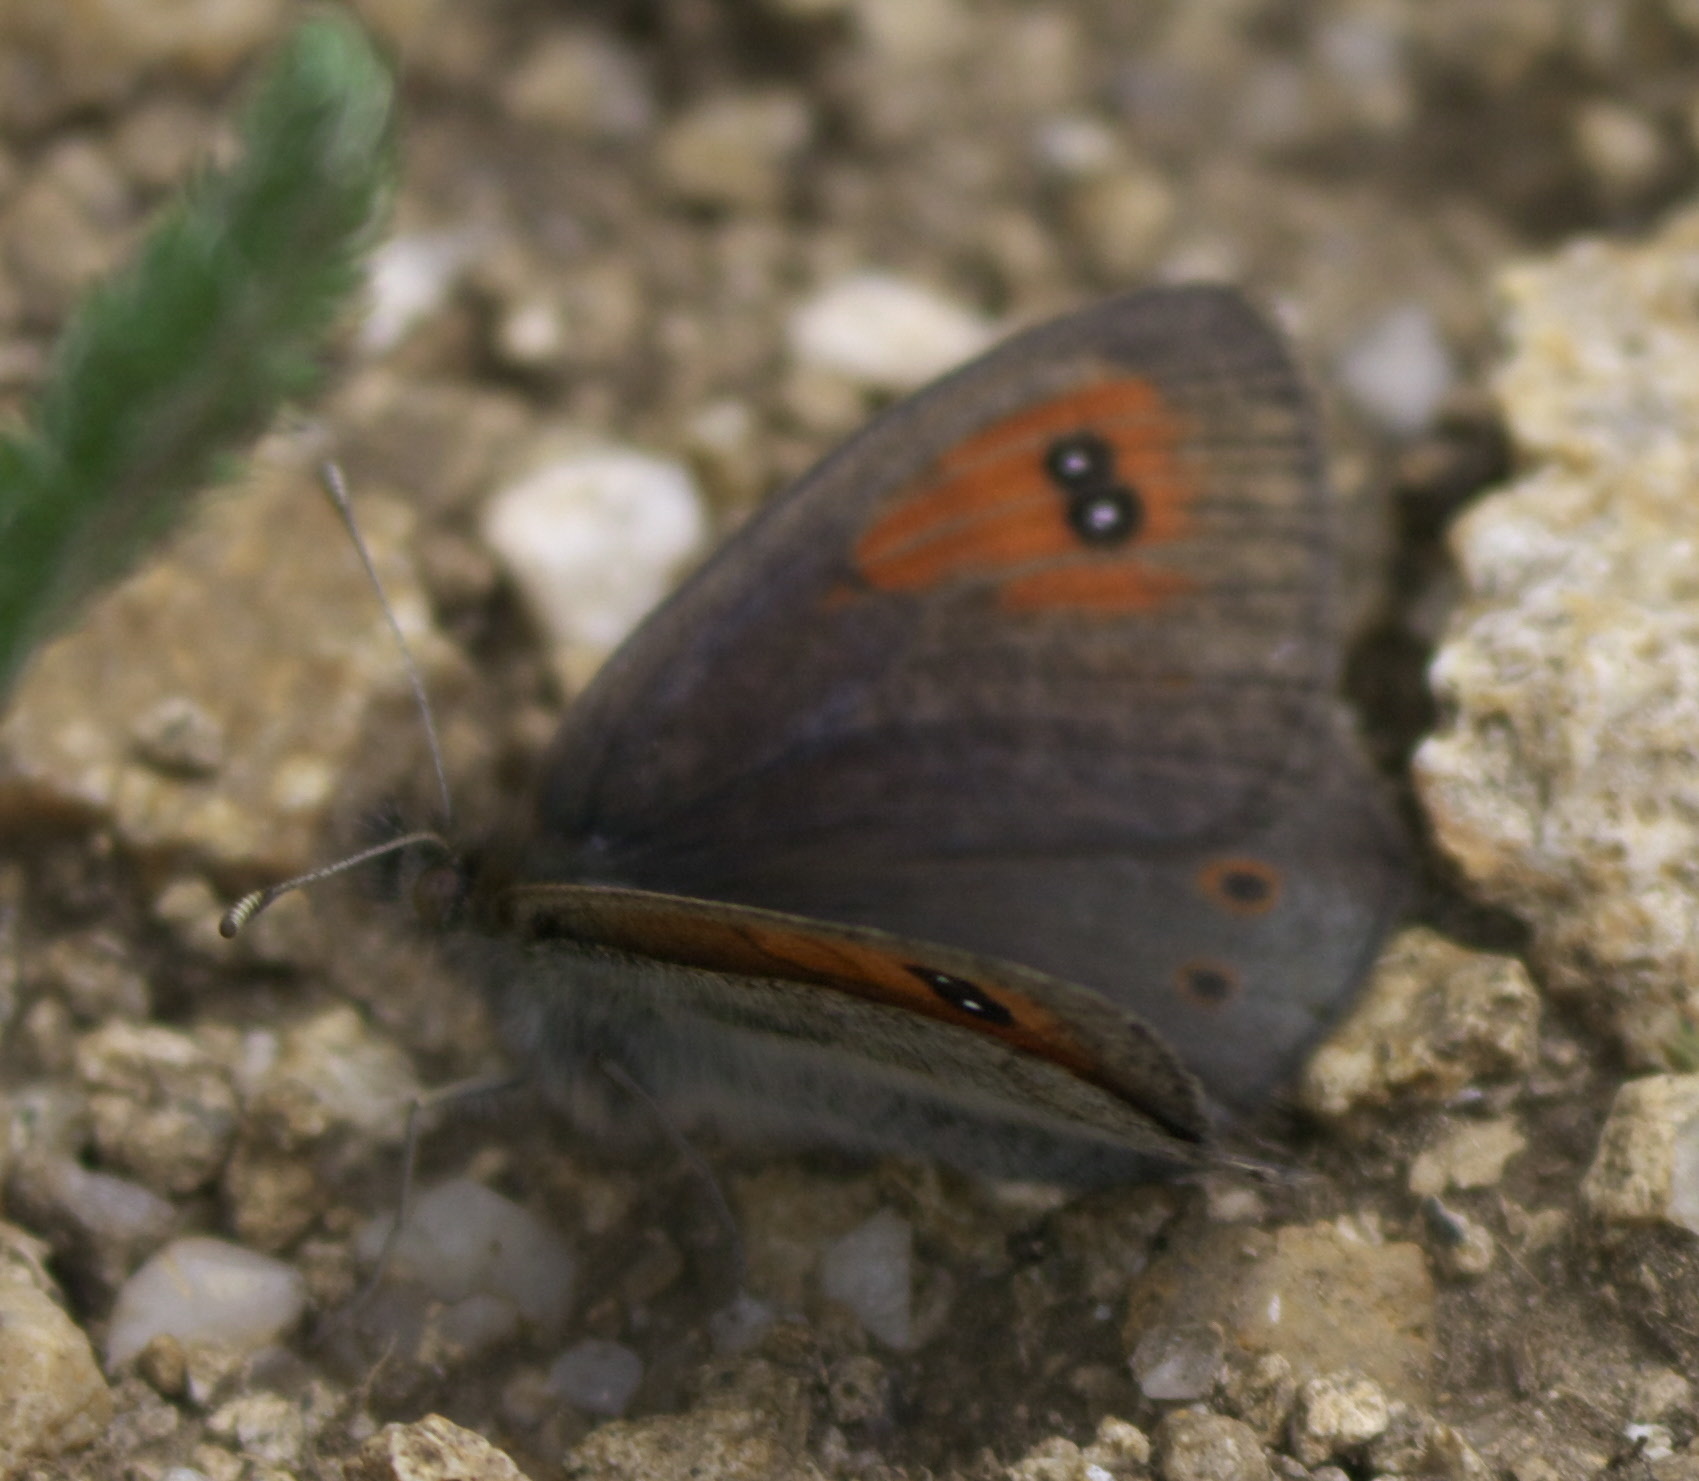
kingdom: Animalia
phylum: Arthropoda
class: Insecta
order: Lepidoptera
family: Nymphalidae
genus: Erebia
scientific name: Erebia tyndarus
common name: Swiss brassy ringlet
